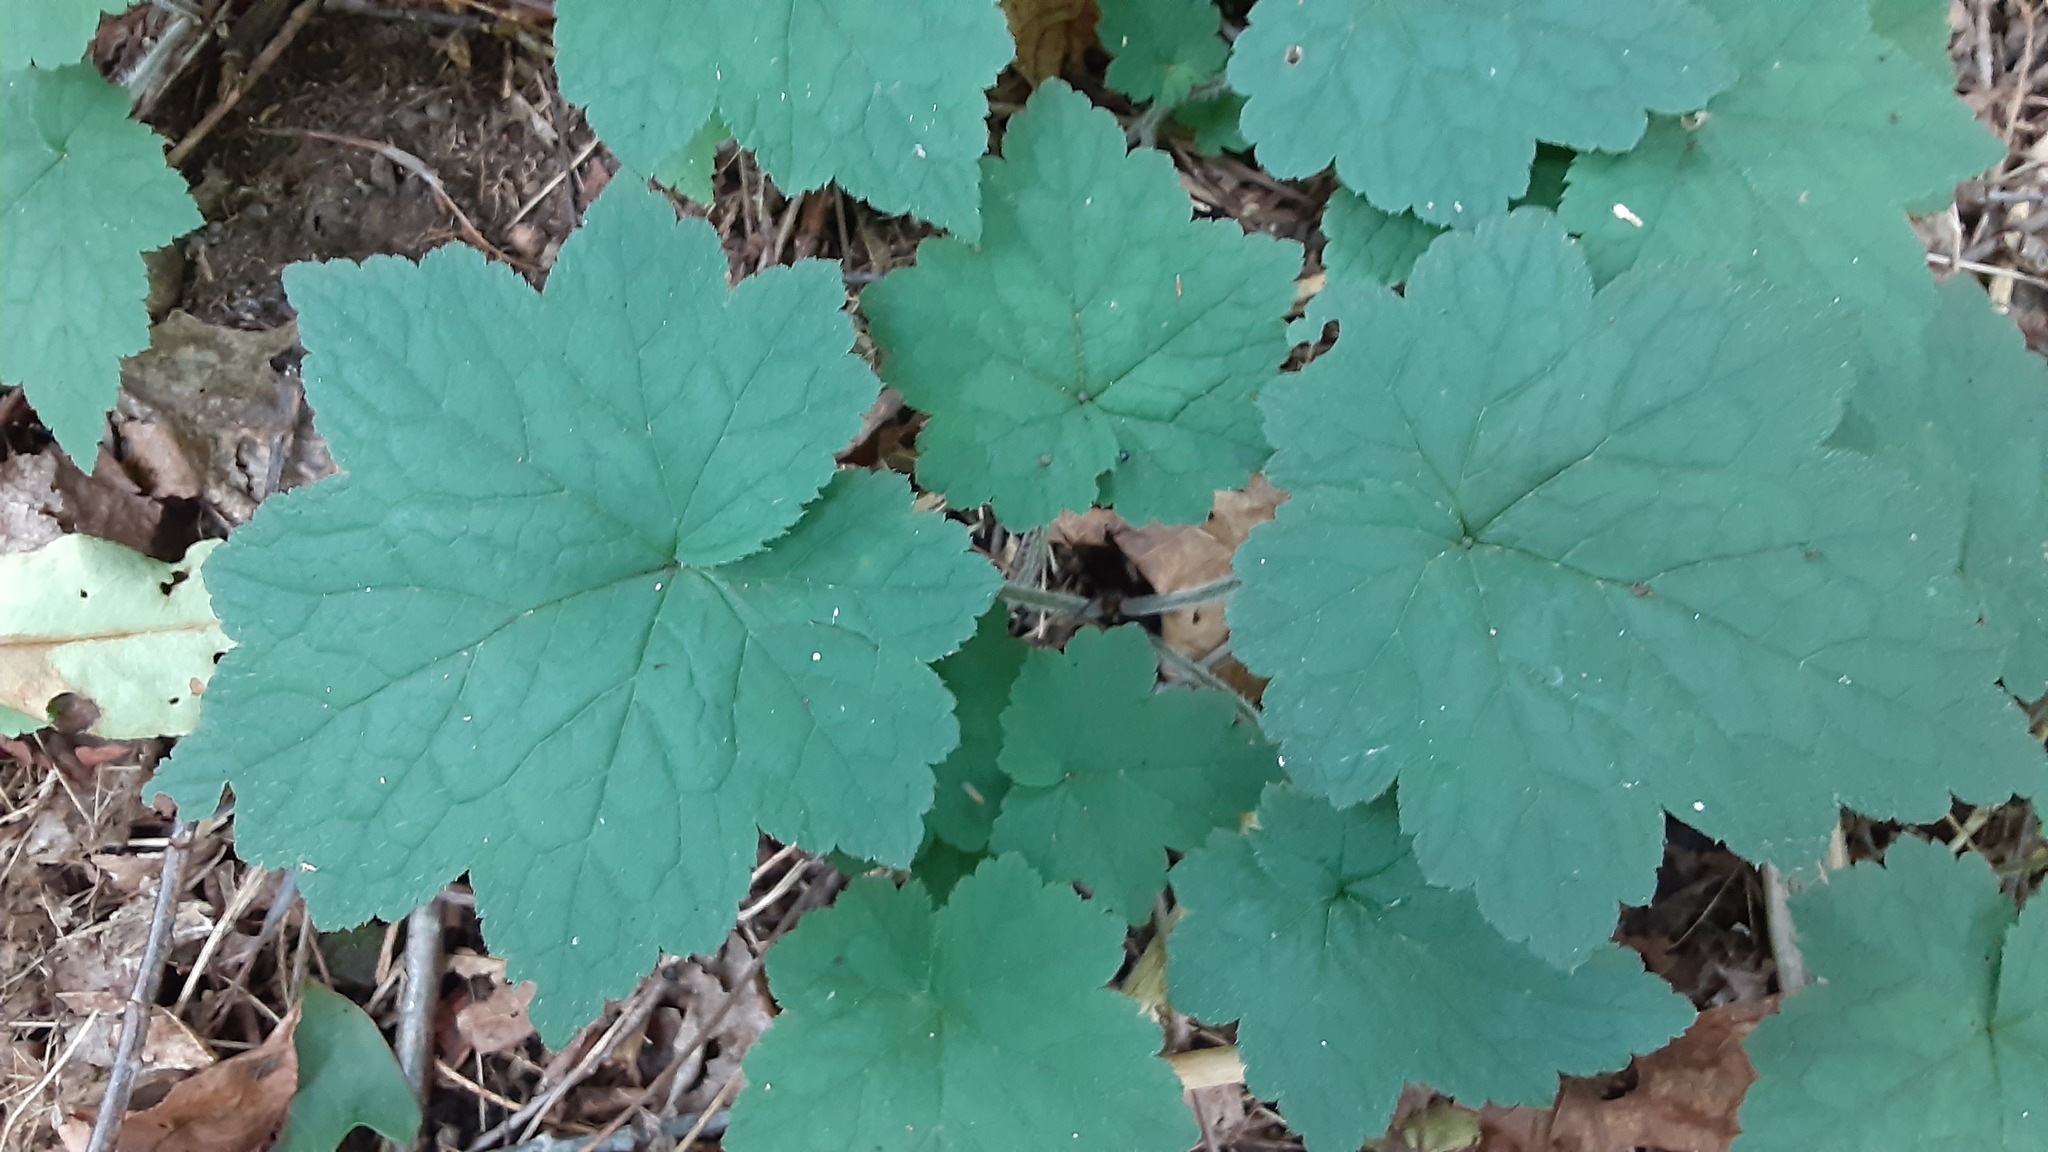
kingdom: Plantae
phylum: Tracheophyta
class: Magnoliopsida
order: Saxifragales
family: Saxifragaceae
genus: Tiarella
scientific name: Tiarella stolonifera
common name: Stoloniferous foamflower
